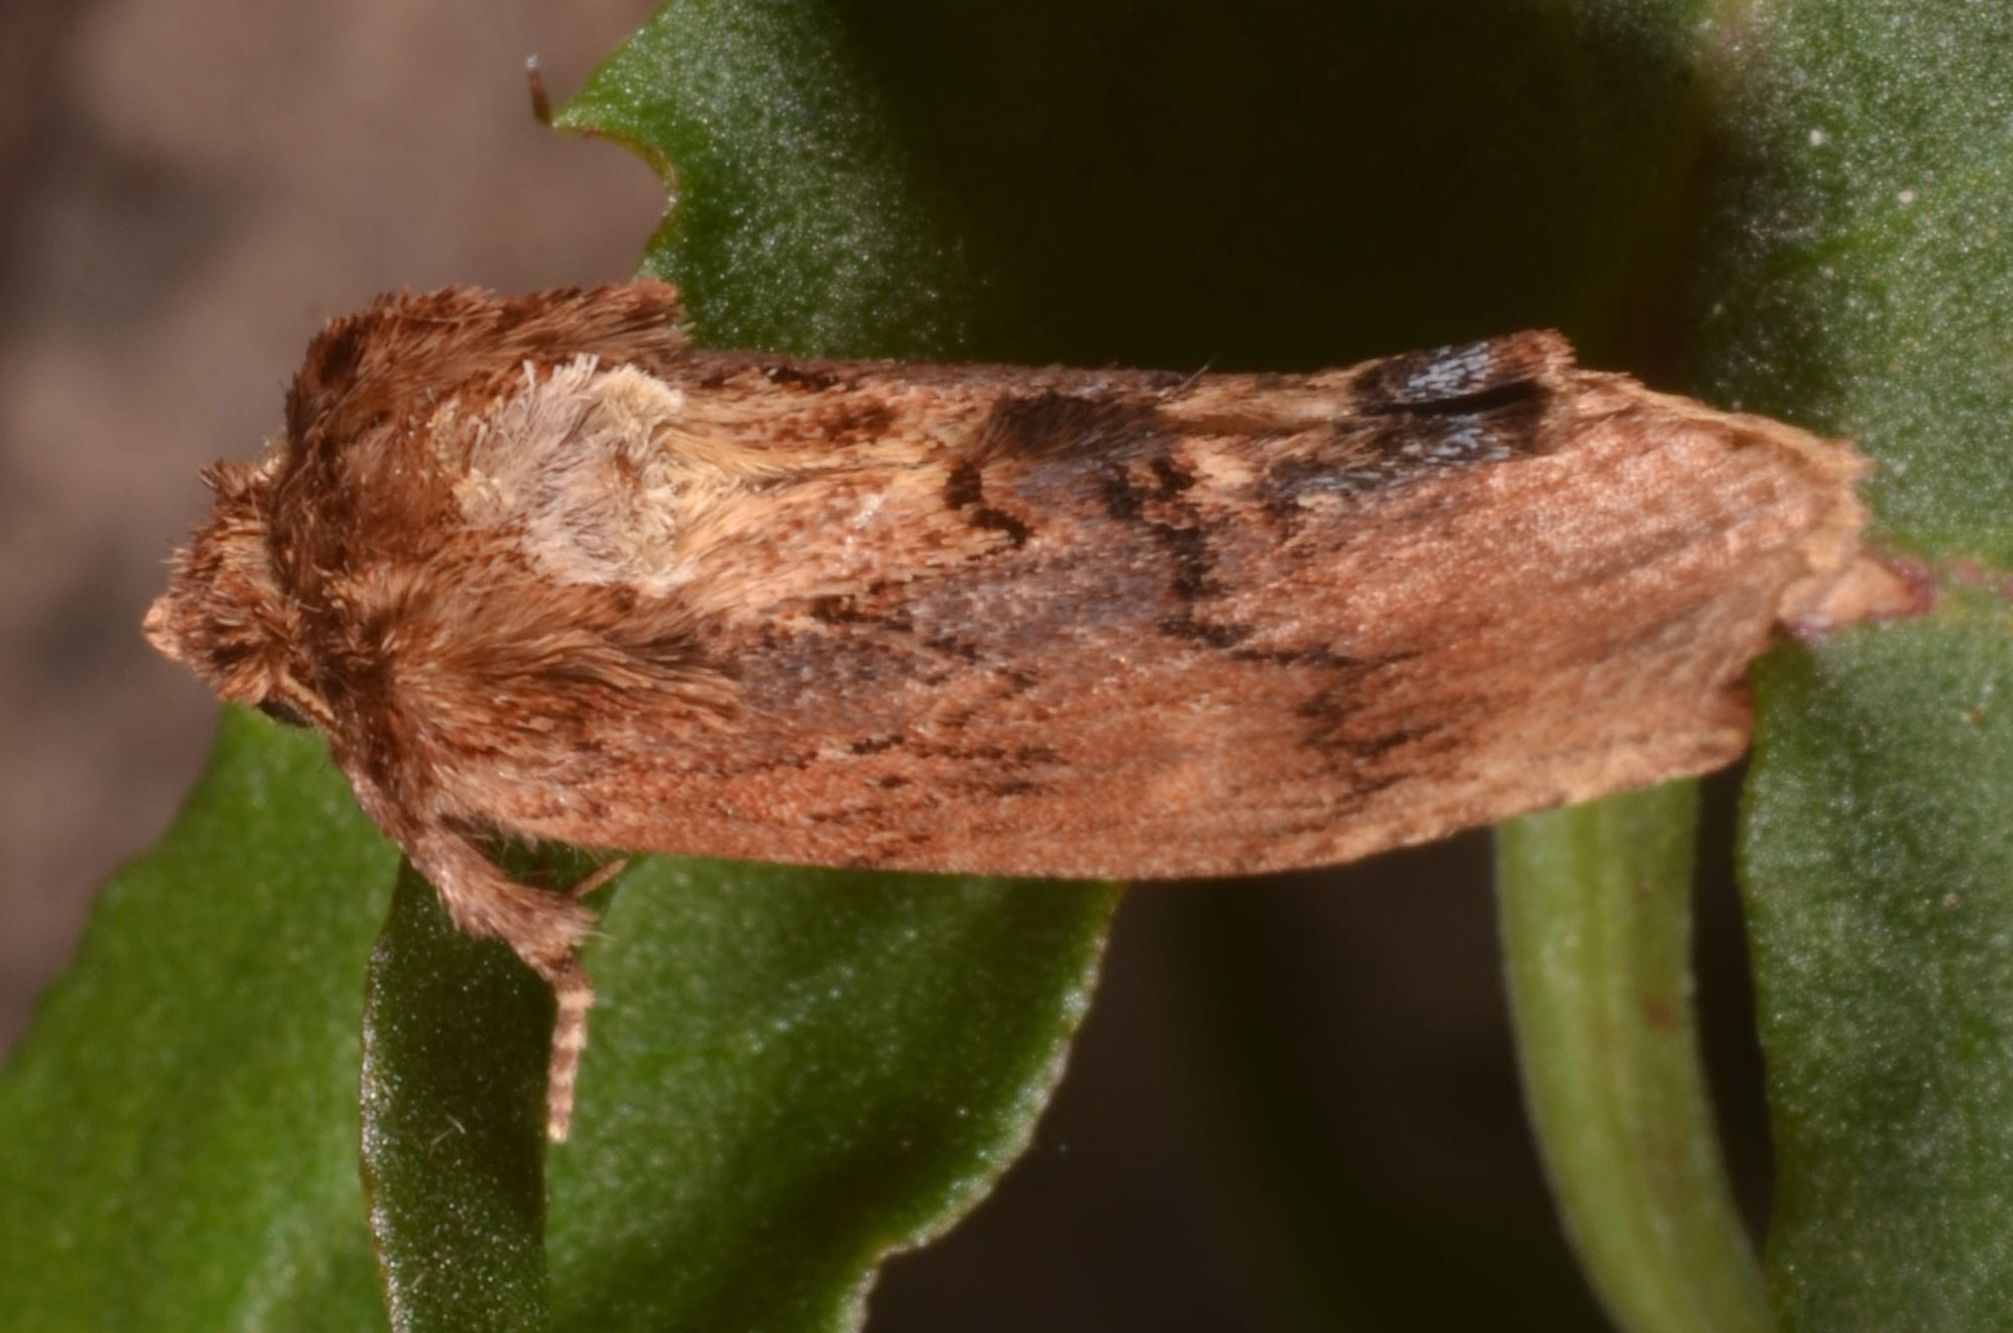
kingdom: Animalia
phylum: Arthropoda
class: Insecta
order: Lepidoptera
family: Notodontidae
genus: Ptilodon
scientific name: Ptilodon capucina
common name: Coxcomb prominent
